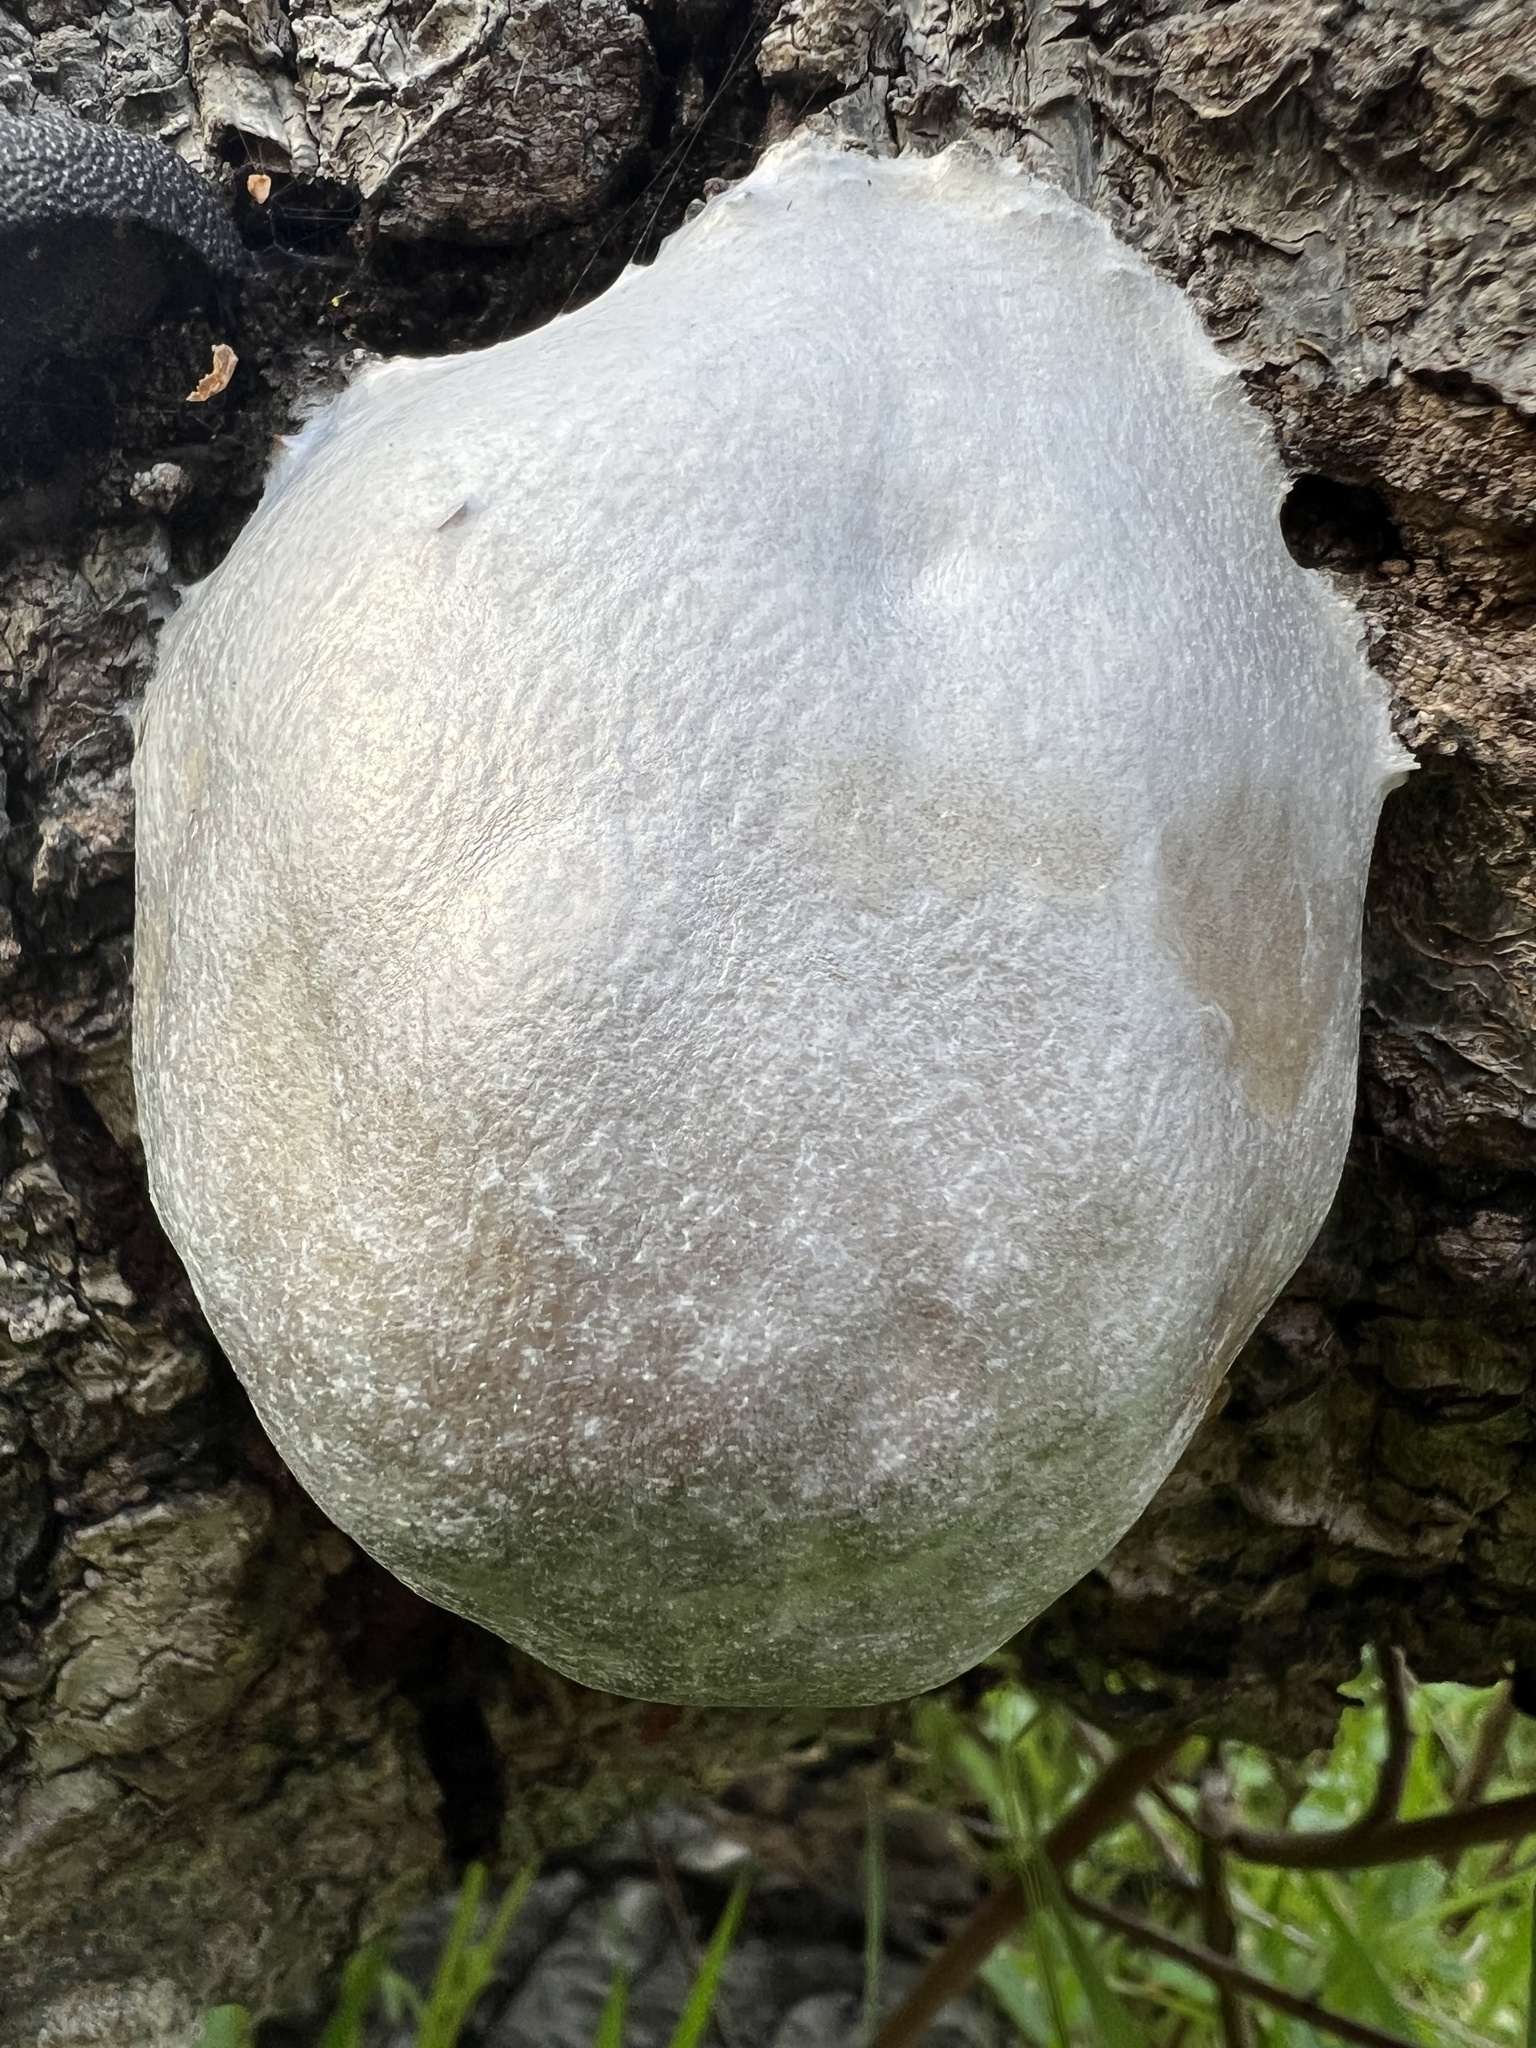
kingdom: Protozoa
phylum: Mycetozoa
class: Myxomycetes
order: Cribrariales
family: Tubiferaceae
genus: Reticularia
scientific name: Reticularia lycoperdon
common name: False puffball
